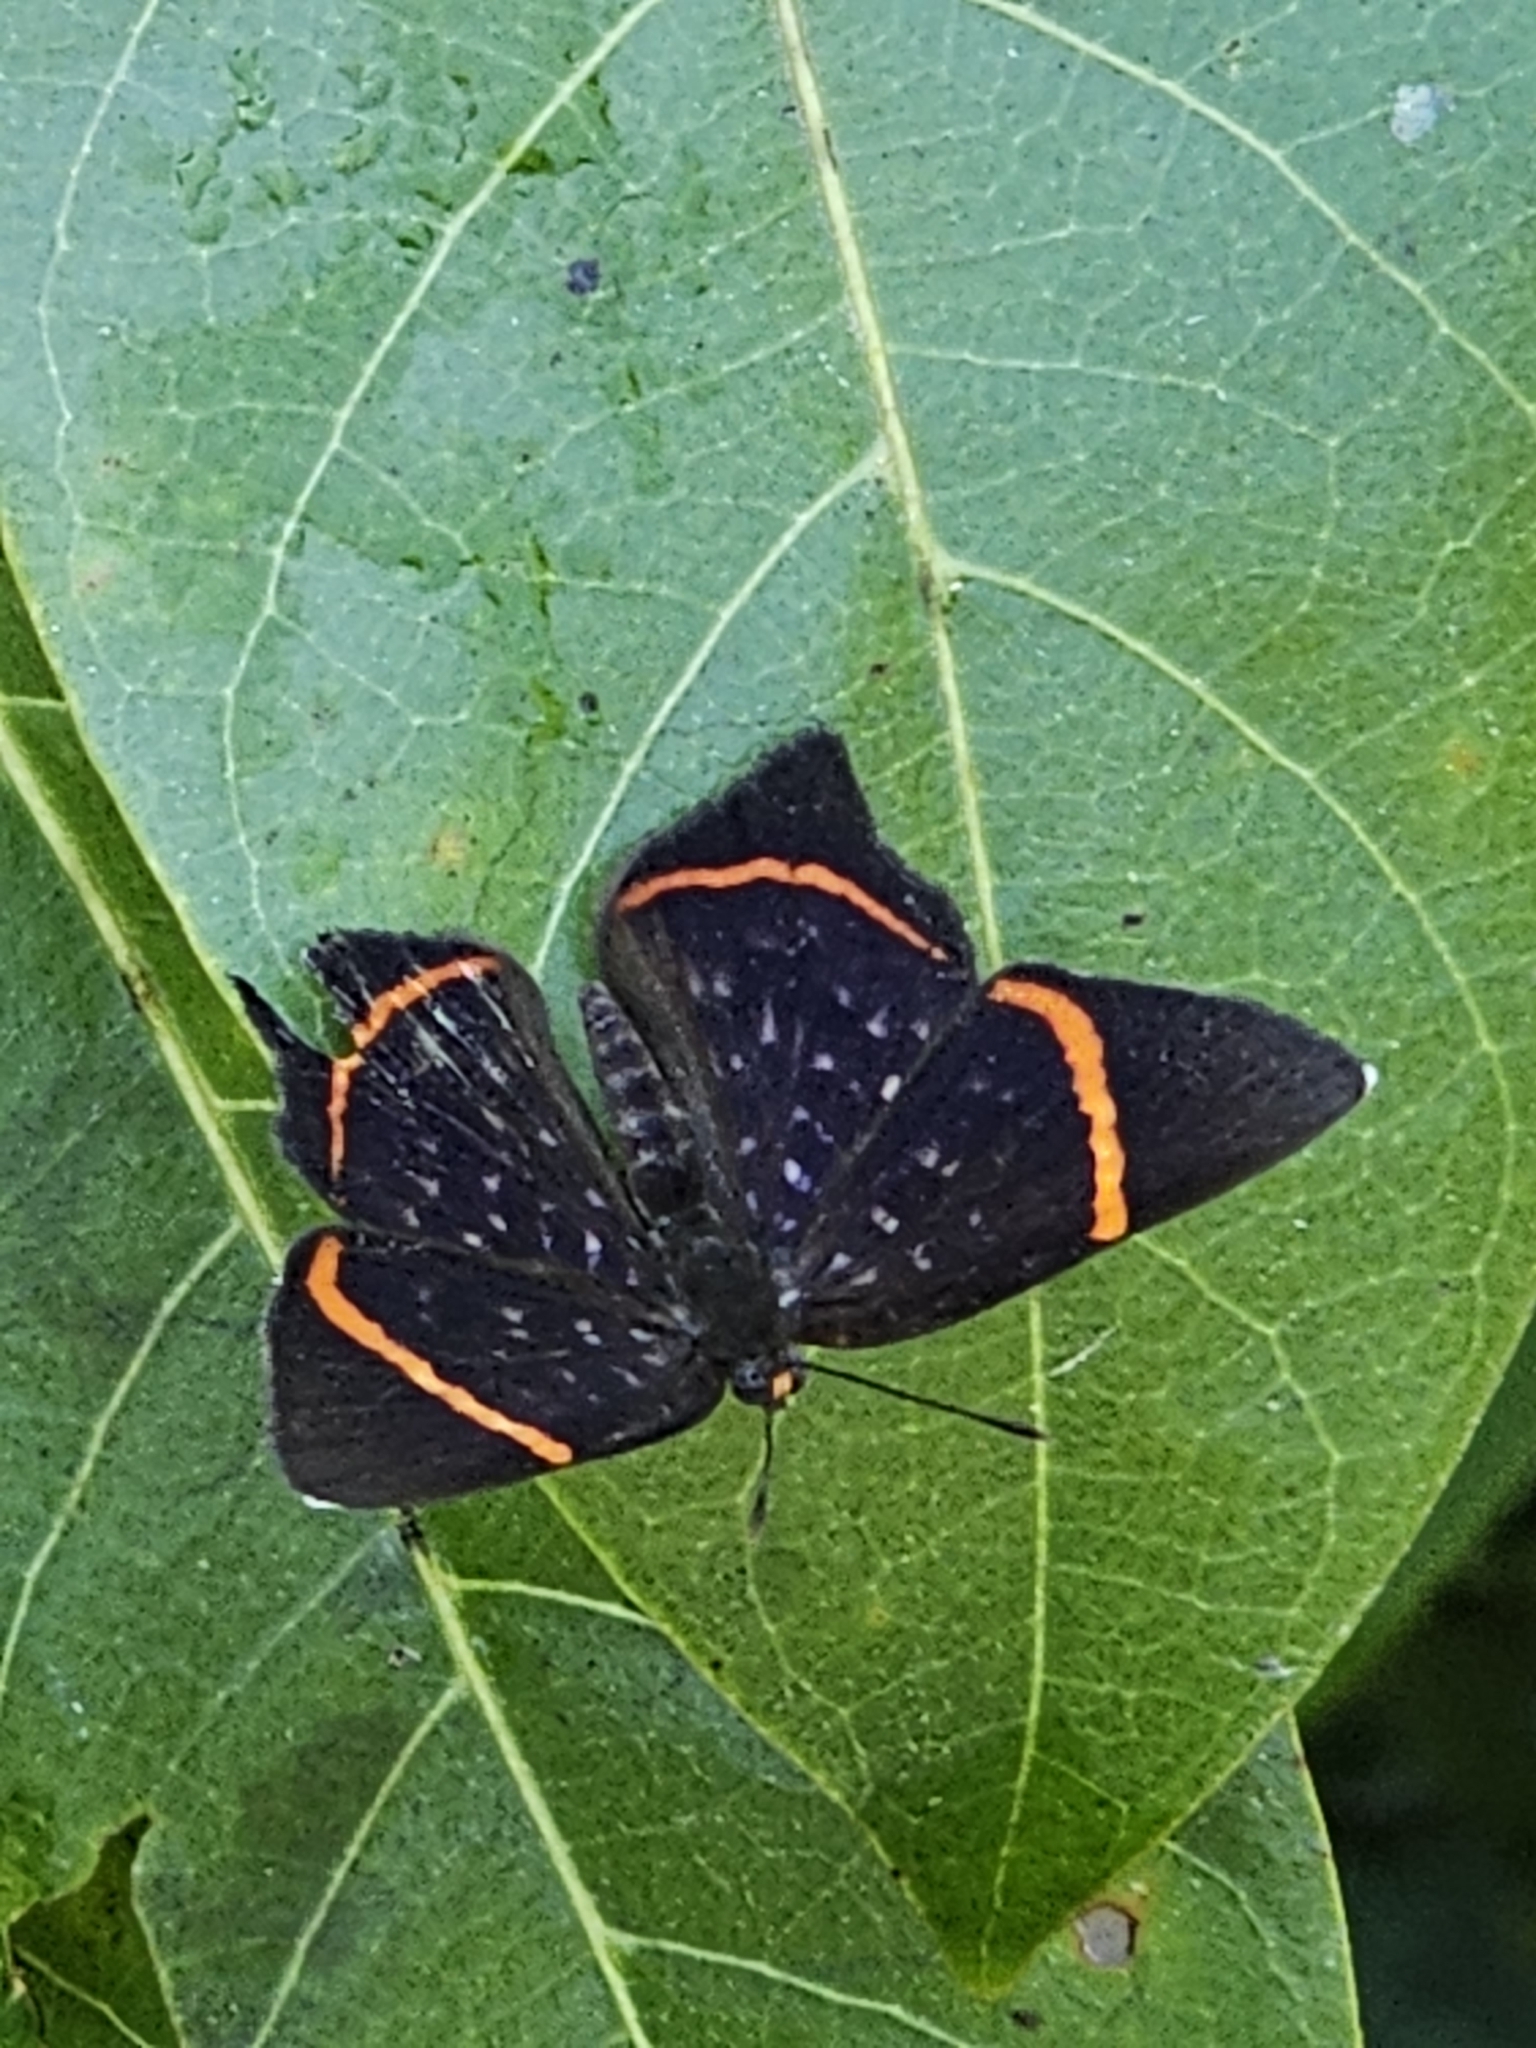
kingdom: Animalia
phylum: Arthropoda
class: Insecta
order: Lepidoptera
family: Riodinidae
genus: Riodina
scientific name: Riodina lysippus
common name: Lysippus metalmark
